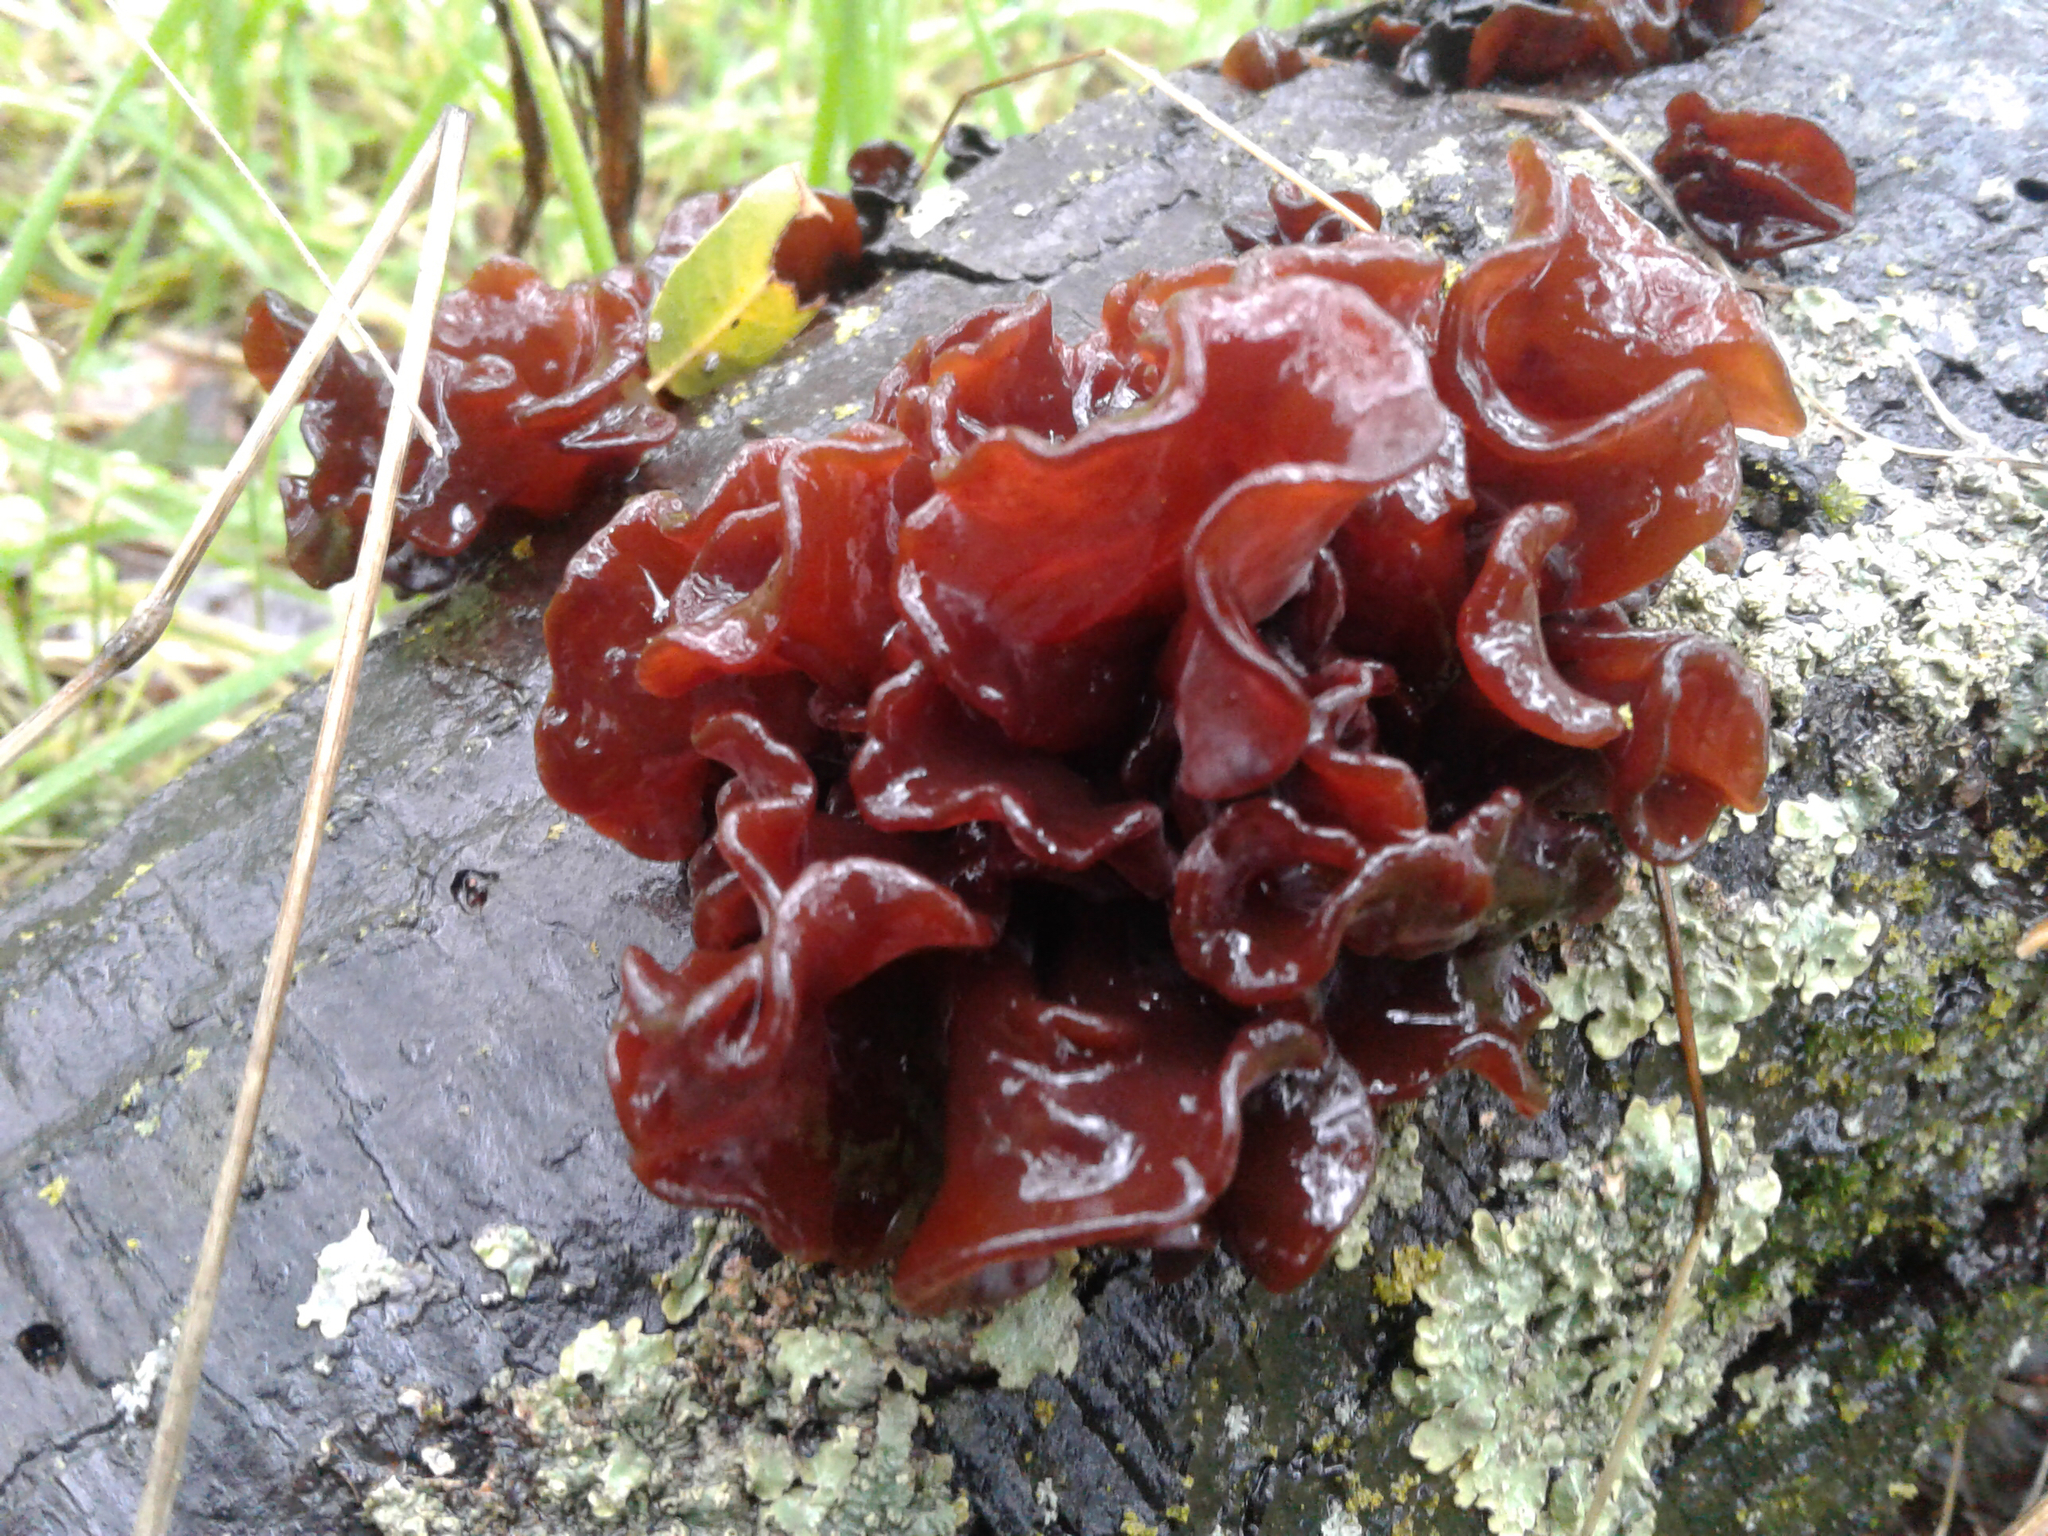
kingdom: Fungi
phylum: Basidiomycota
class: Tremellomycetes
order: Tremellales
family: Tremellaceae
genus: Phaeotremella
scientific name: Phaeotremella foliacea
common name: Leafy brain
